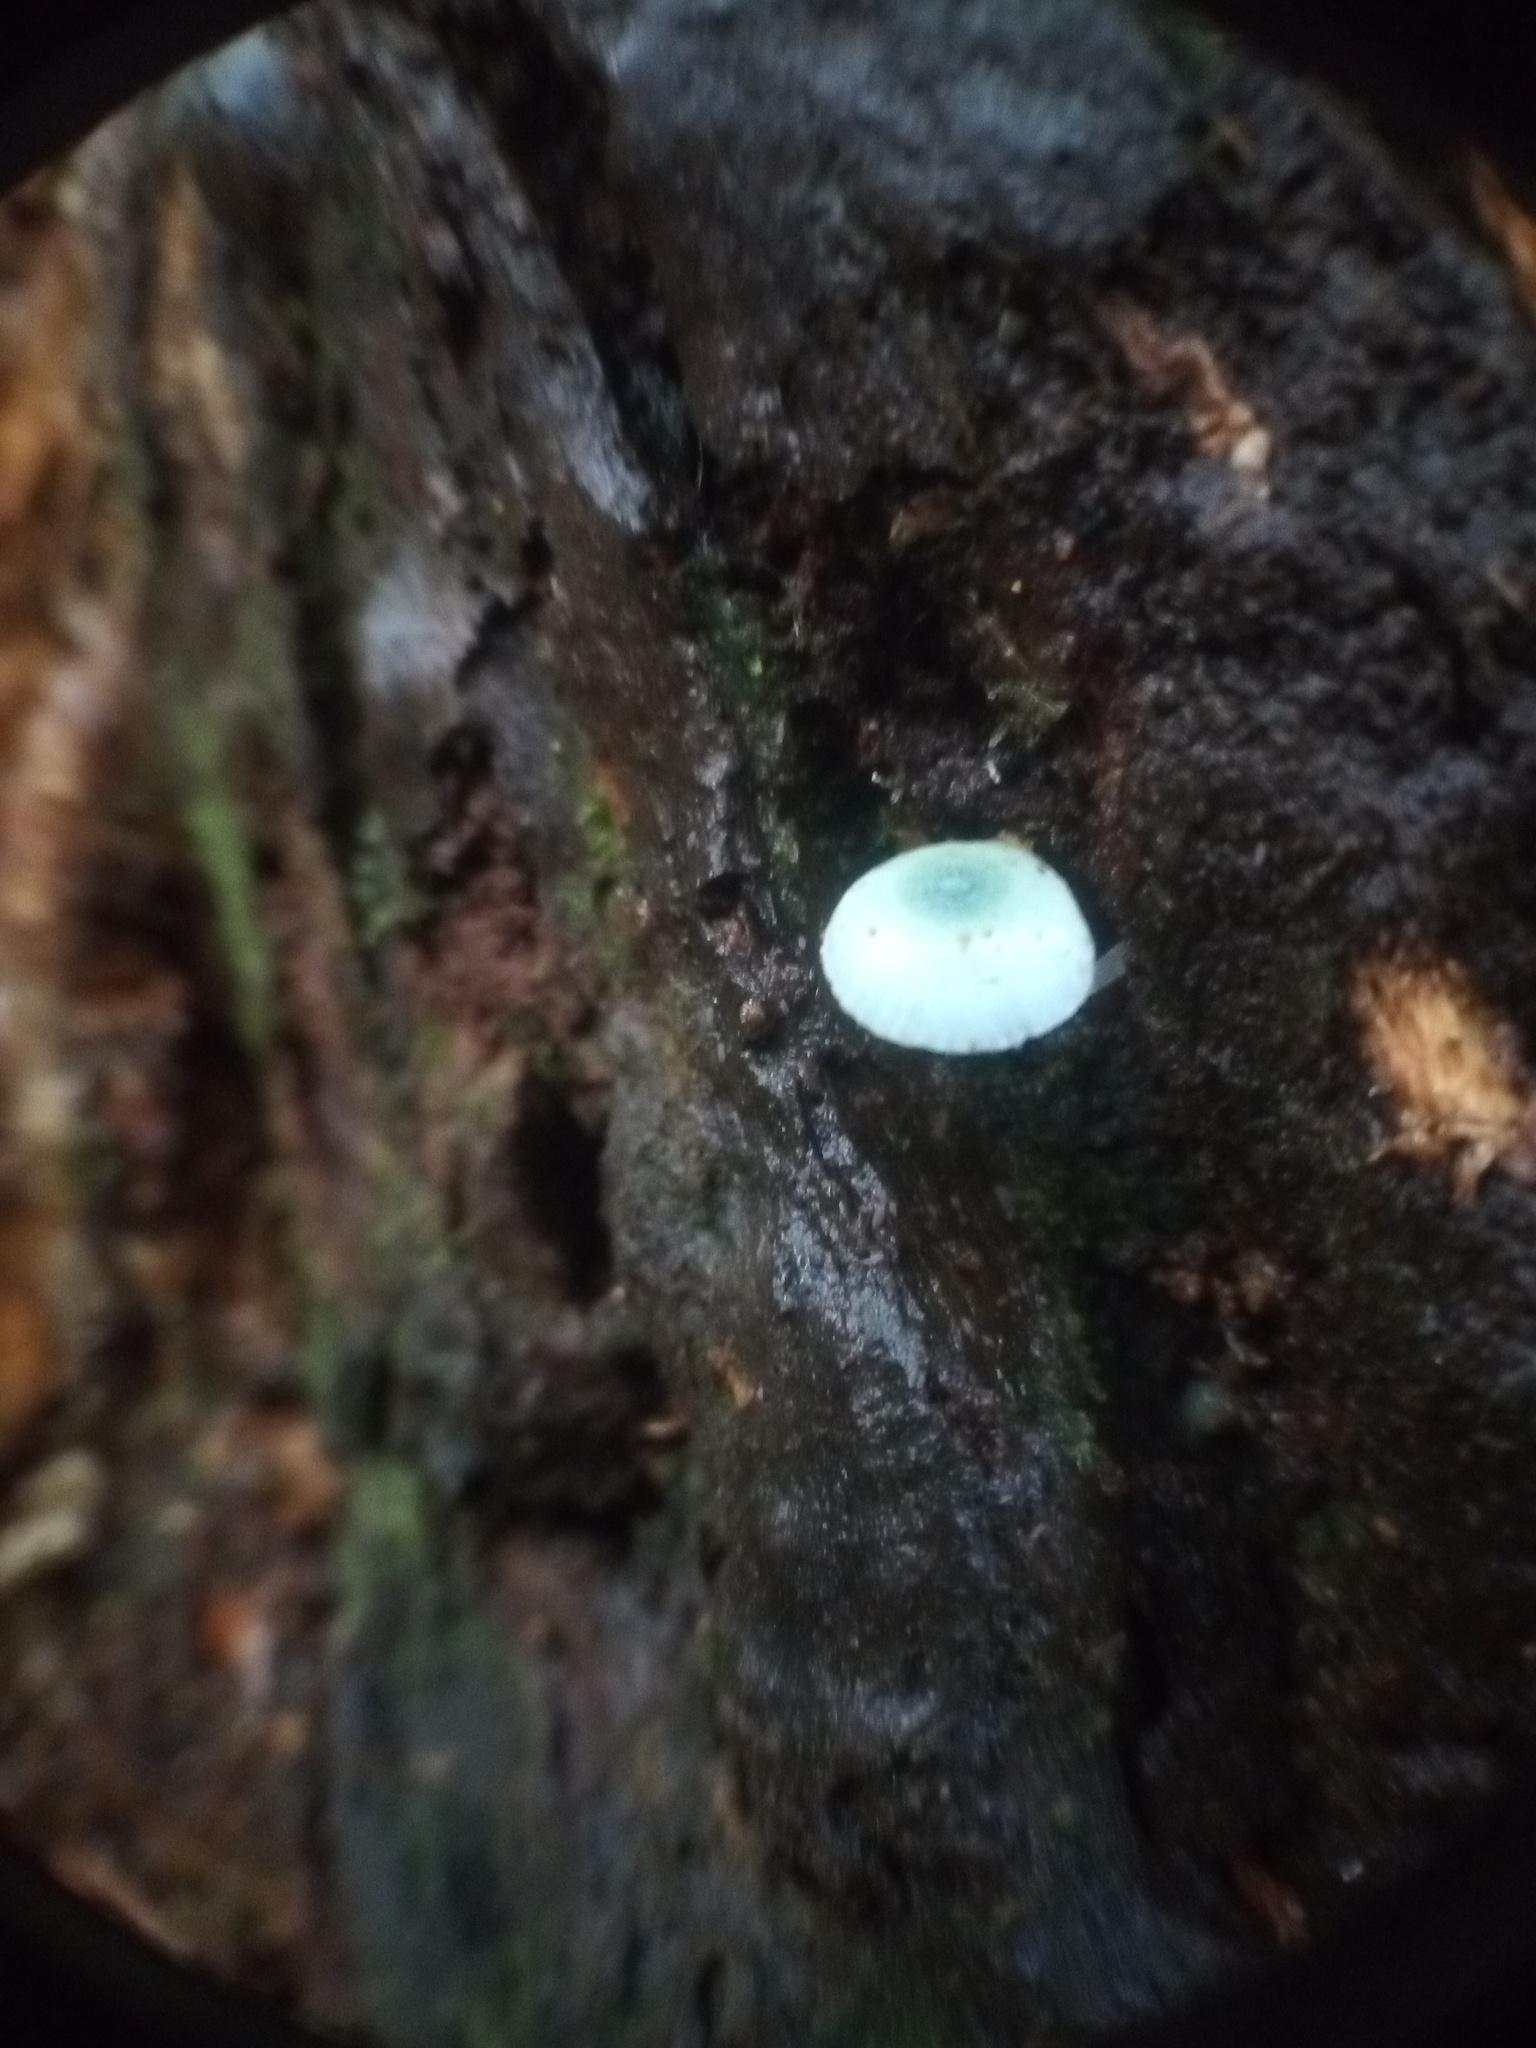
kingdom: Fungi
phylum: Basidiomycota
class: Agaricomycetes
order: Agaricales
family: Mycenaceae
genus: Mycena
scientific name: Mycena interrupta
